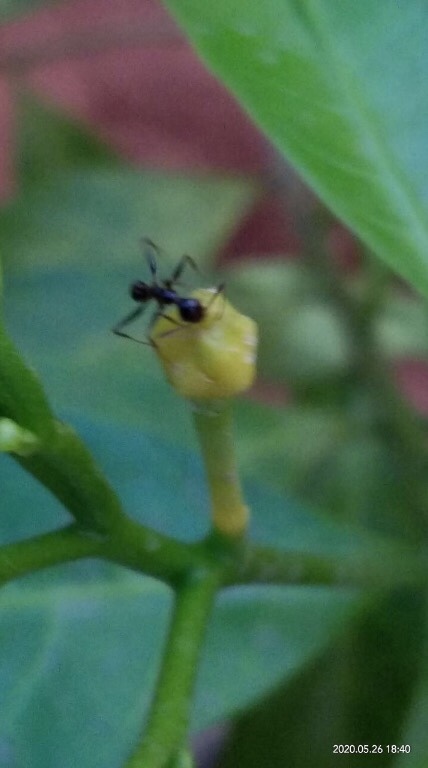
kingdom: Animalia
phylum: Arthropoda
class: Insecta
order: Hymenoptera
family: Formicidae
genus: Camponotus
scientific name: Camponotus compressus
